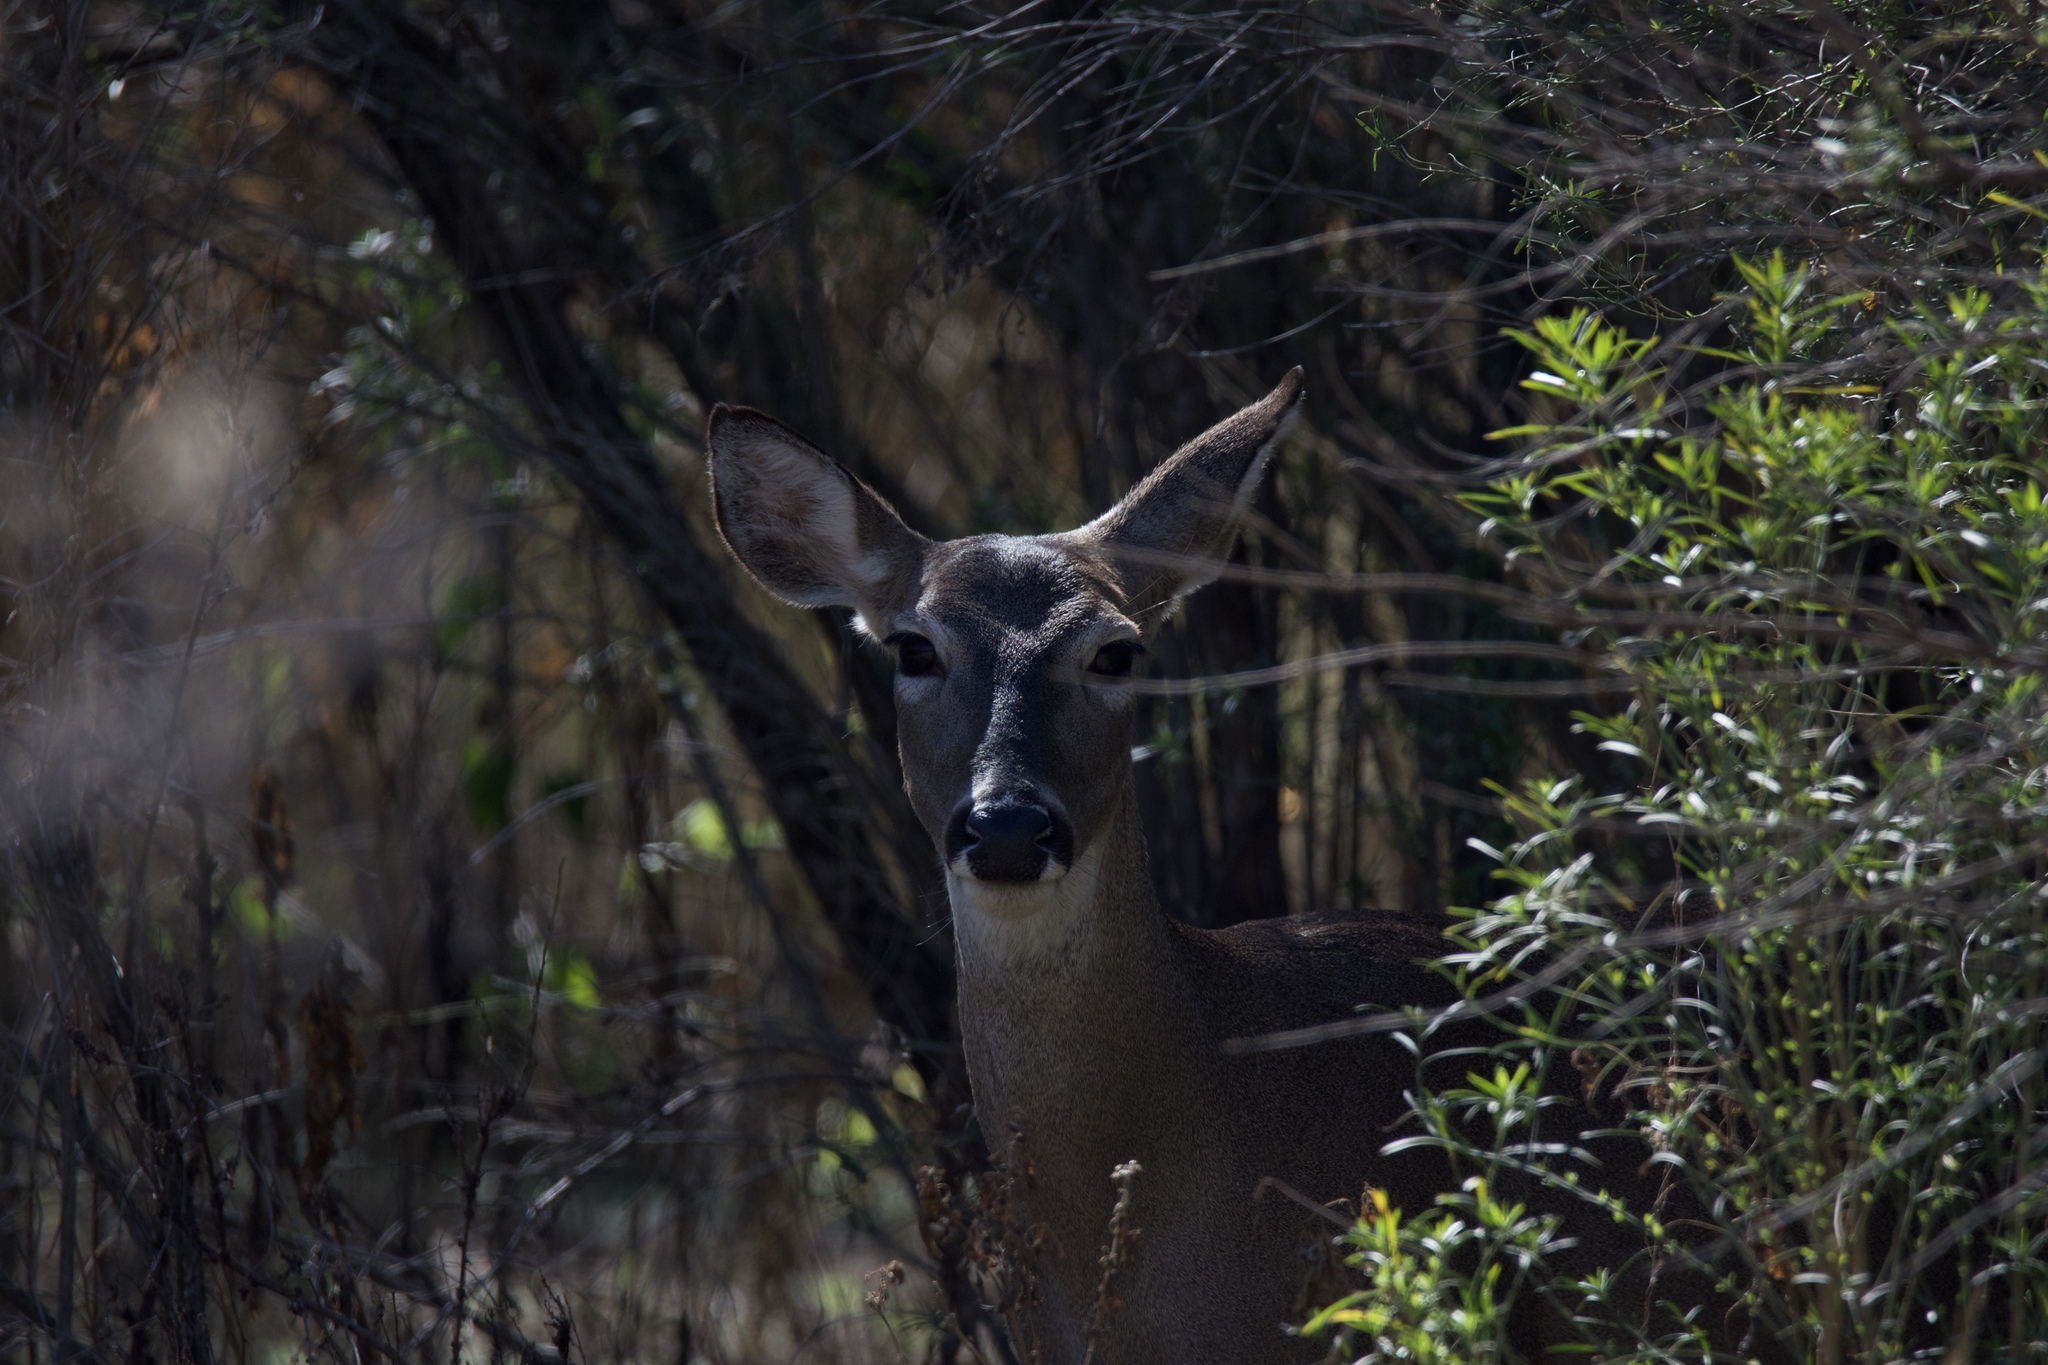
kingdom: Animalia
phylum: Chordata
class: Mammalia
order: Artiodactyla
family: Cervidae
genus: Odocoileus
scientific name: Odocoileus virginianus
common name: White-tailed deer
